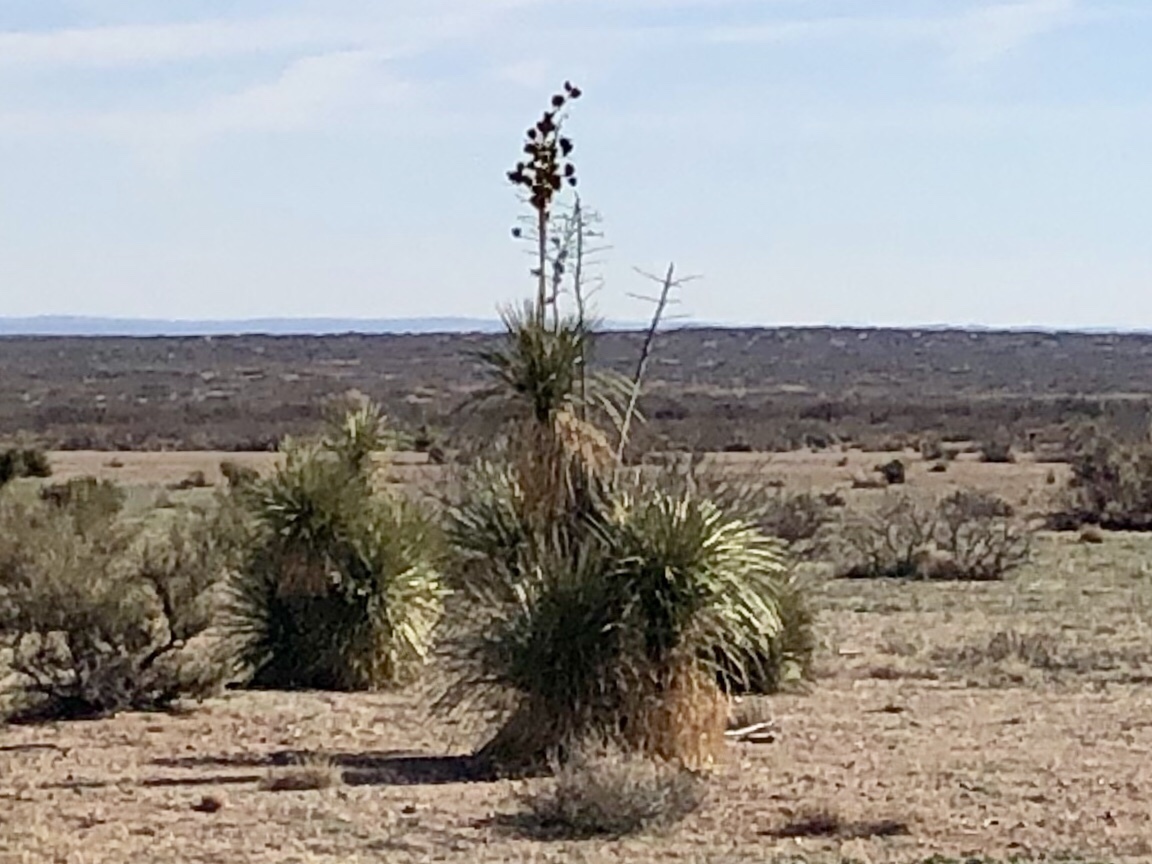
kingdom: Plantae
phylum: Tracheophyta
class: Liliopsida
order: Asparagales
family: Asparagaceae
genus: Yucca
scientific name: Yucca elata
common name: Palmella
